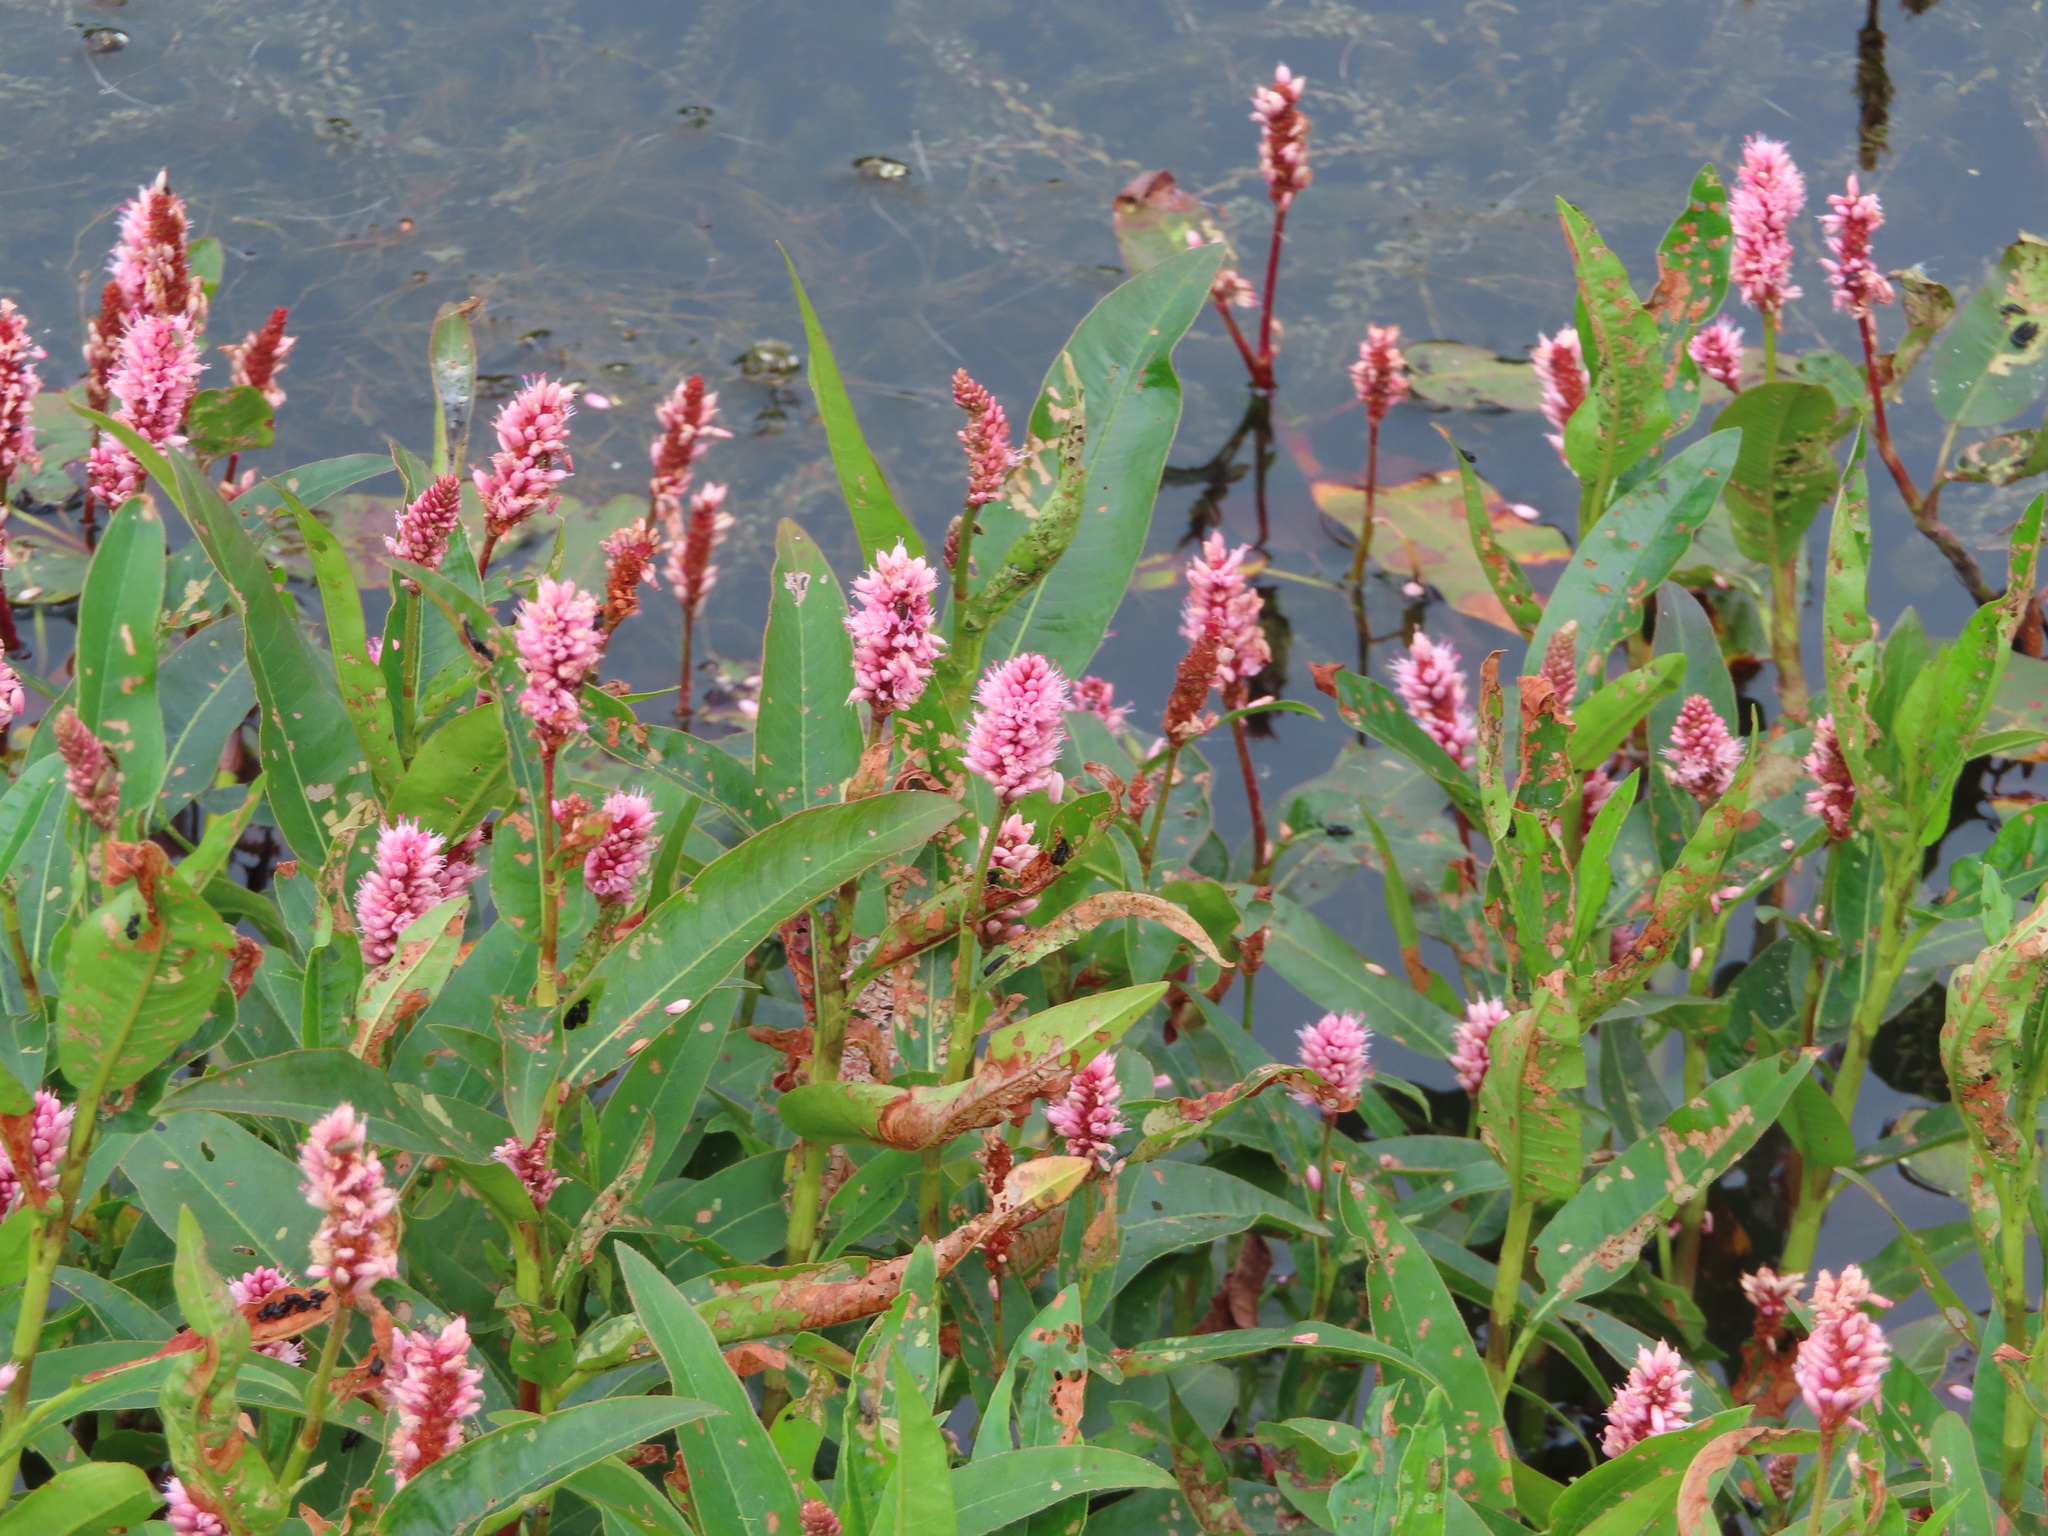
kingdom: Plantae
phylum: Tracheophyta
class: Magnoliopsida
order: Caryophyllales
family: Polygonaceae
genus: Persicaria
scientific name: Persicaria amphibia
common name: Amphibious bistort
